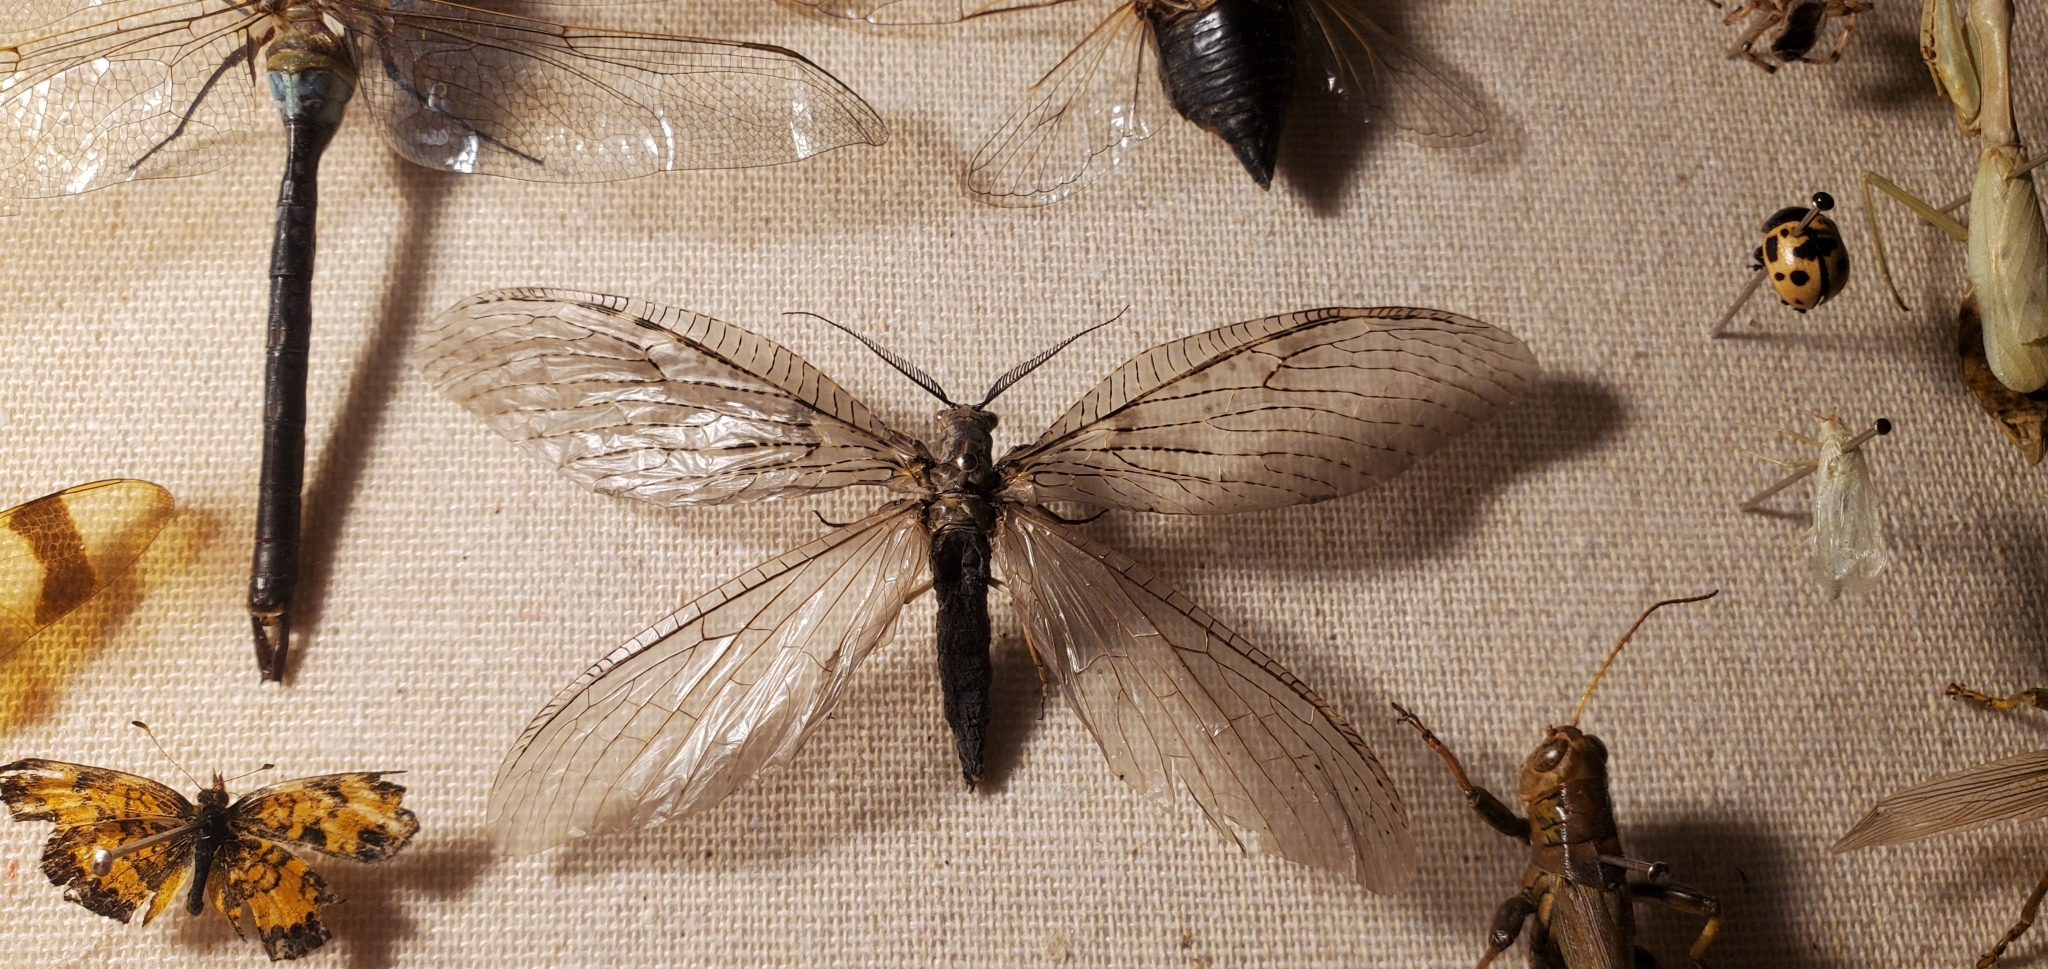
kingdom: Animalia
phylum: Arthropoda
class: Insecta
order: Megaloptera
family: Corydalidae
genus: Chauliodes
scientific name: Chauliodes pectinicornis
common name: Summer fishfly
